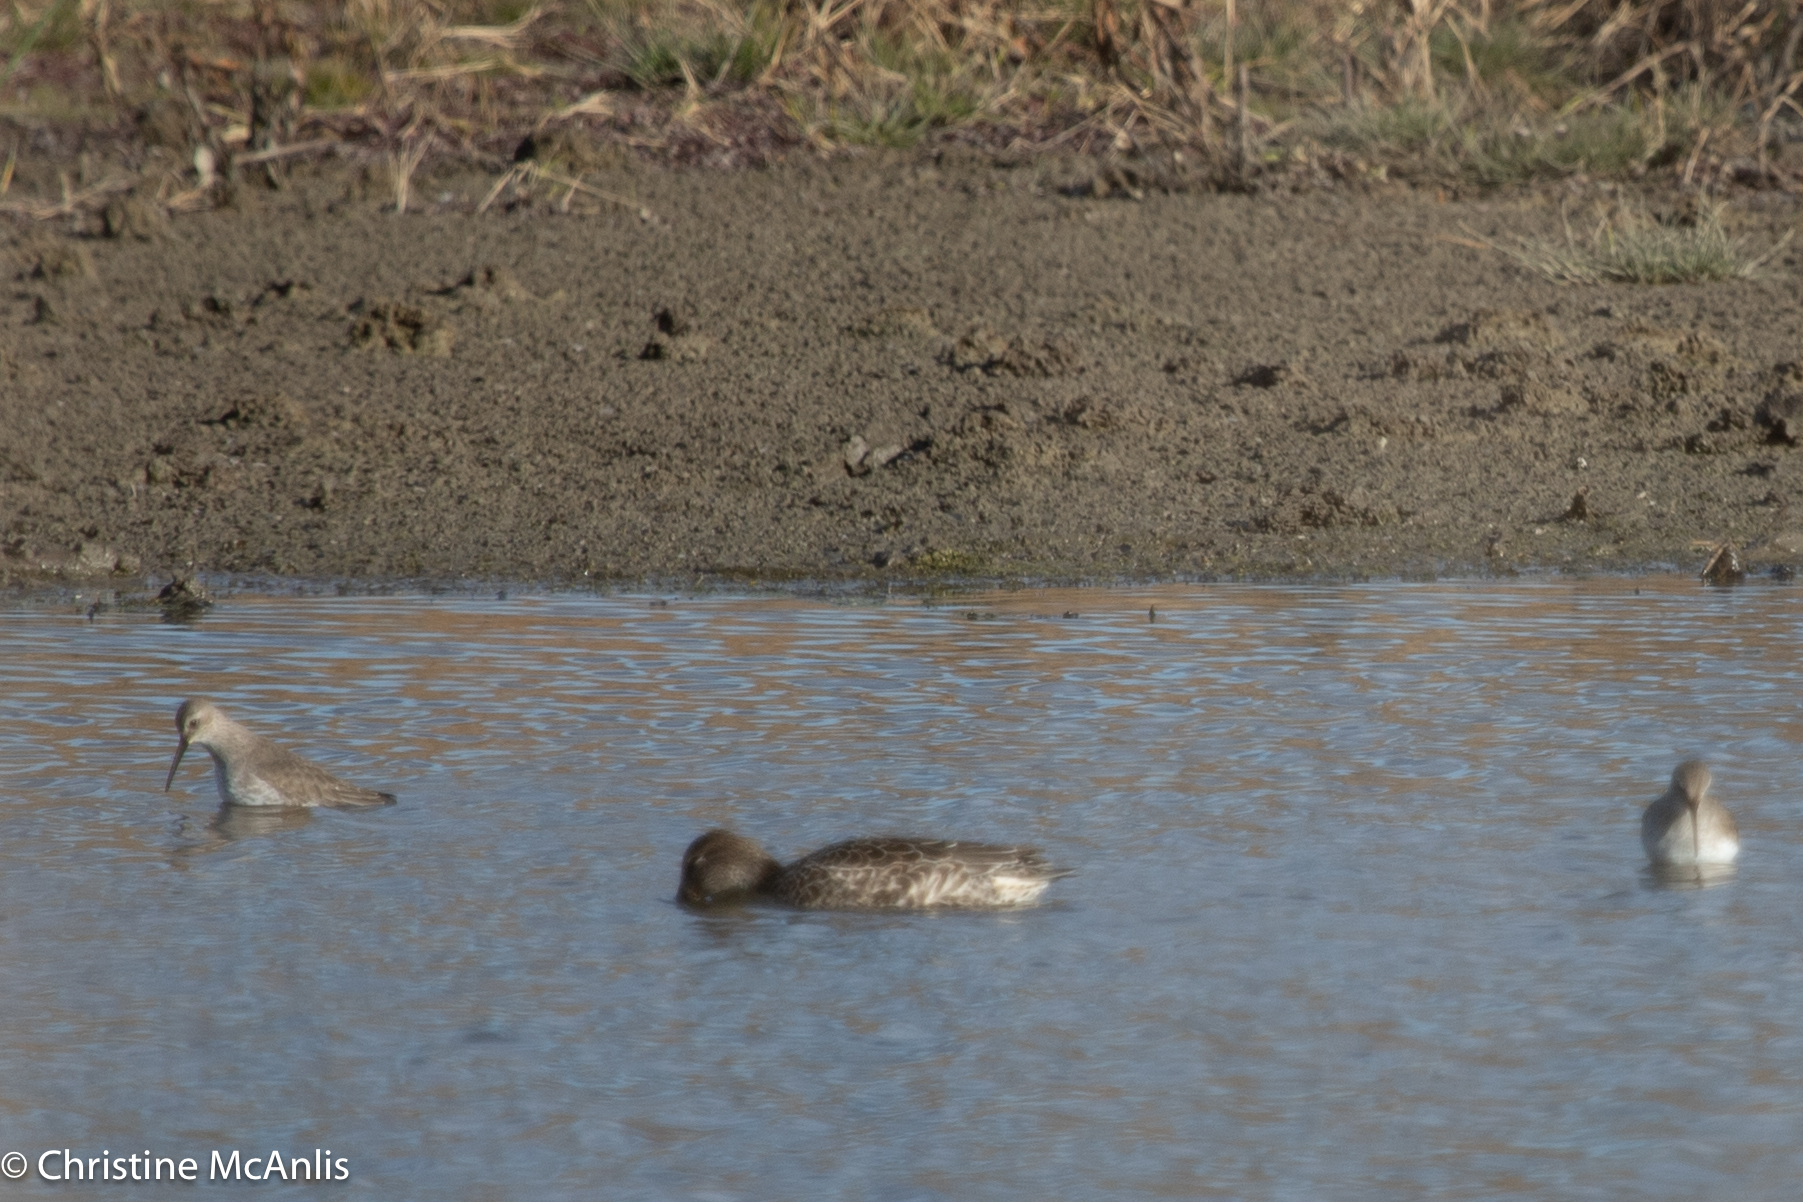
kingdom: Animalia
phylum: Chordata
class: Aves
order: Anseriformes
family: Anatidae
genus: Anas
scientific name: Anas crecca
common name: Eurasian teal
